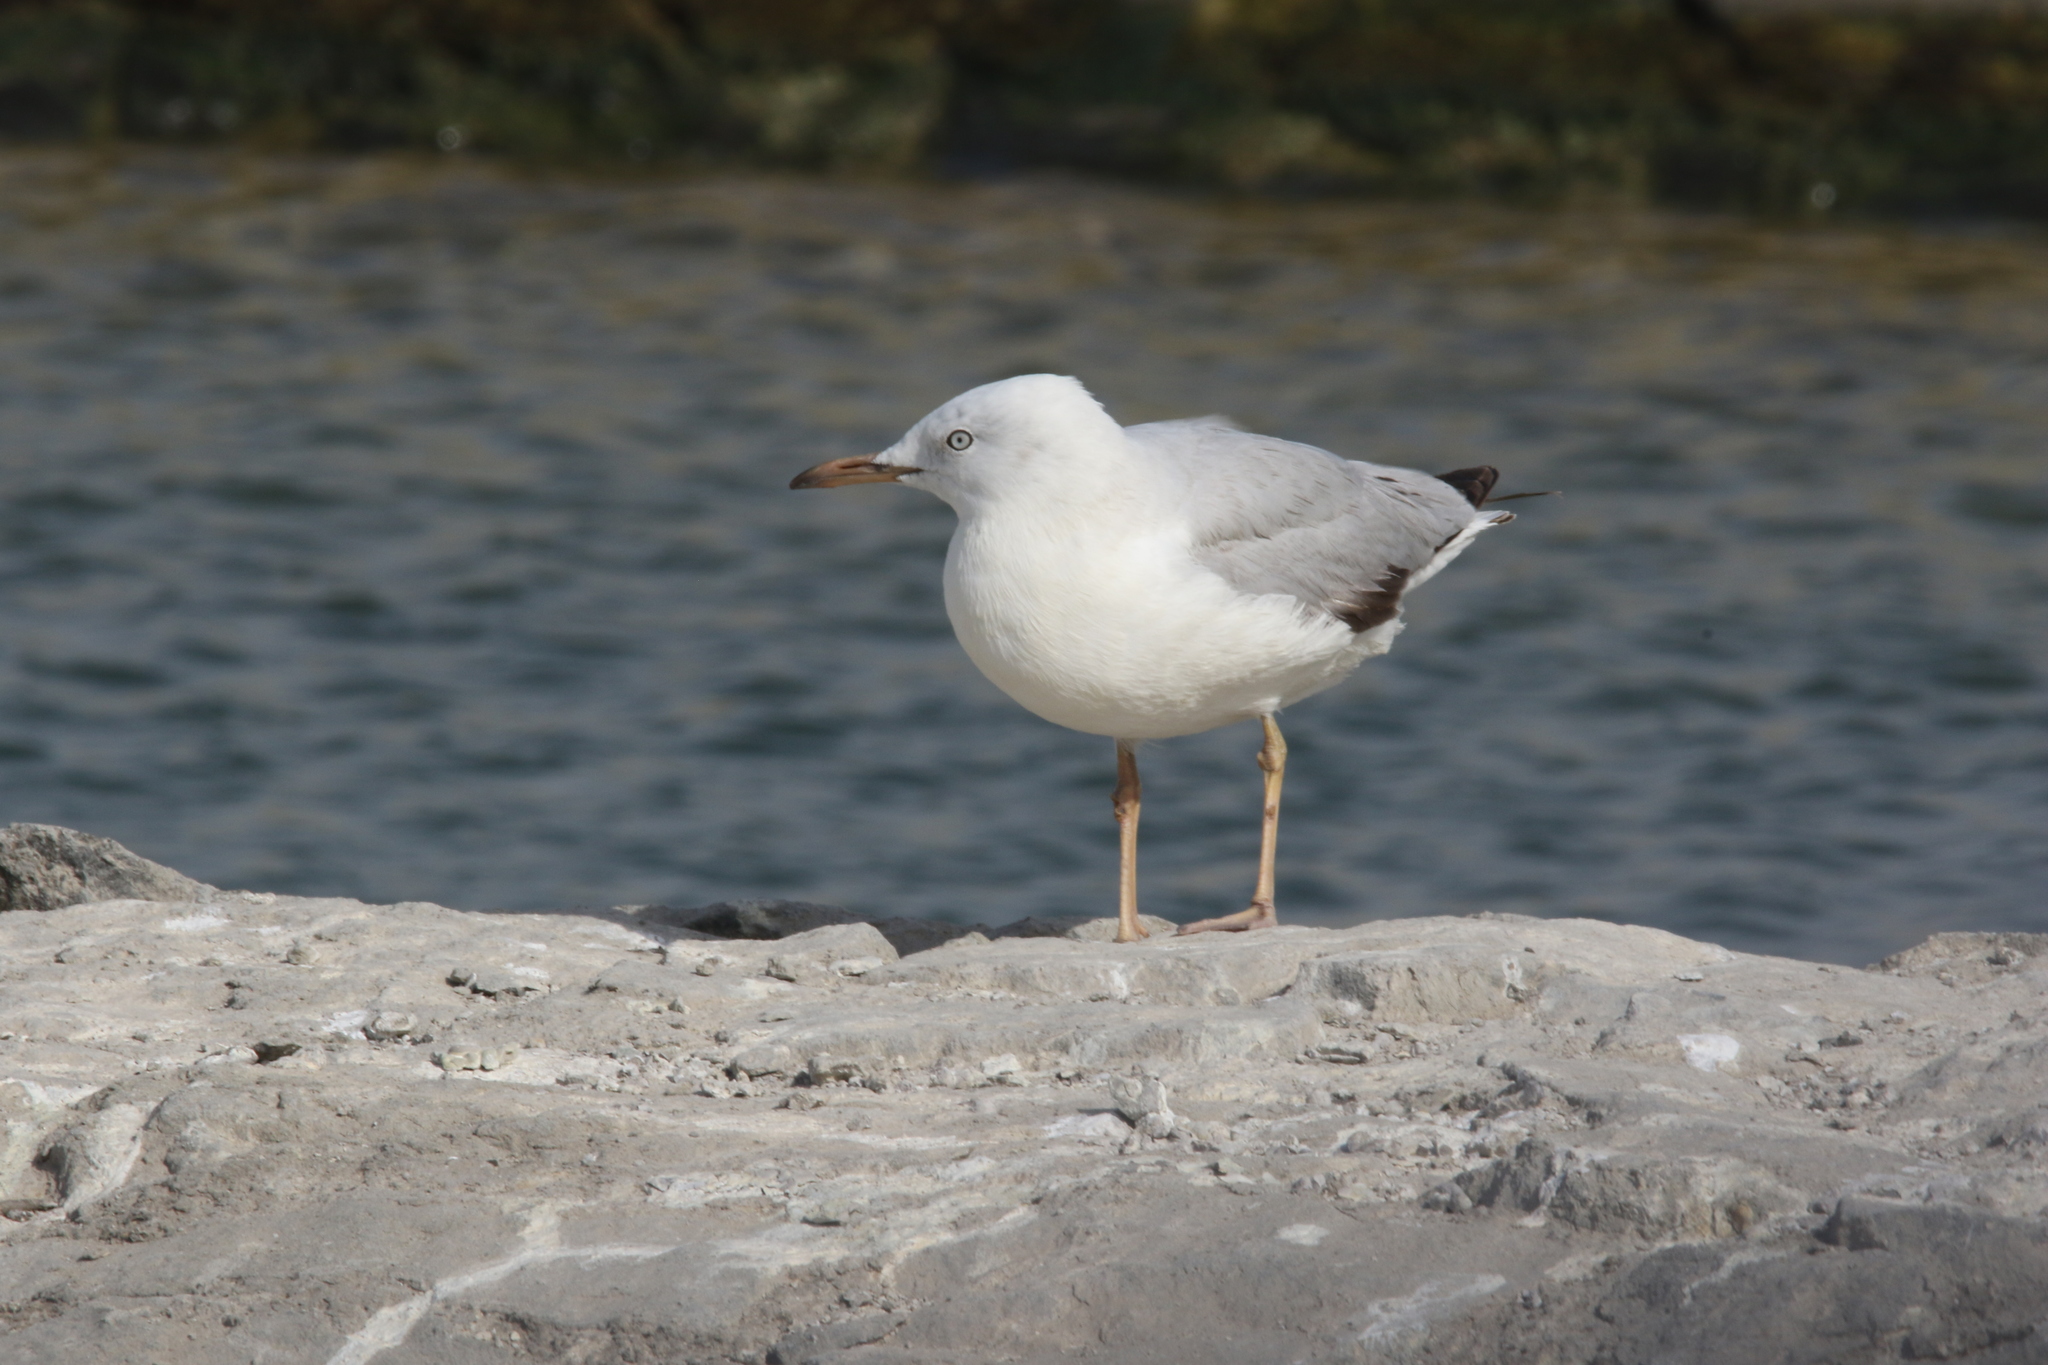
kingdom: Animalia
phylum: Chordata
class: Aves
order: Charadriiformes
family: Laridae
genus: Chroicocephalus
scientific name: Chroicocephalus genei
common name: Slender-billed gull
